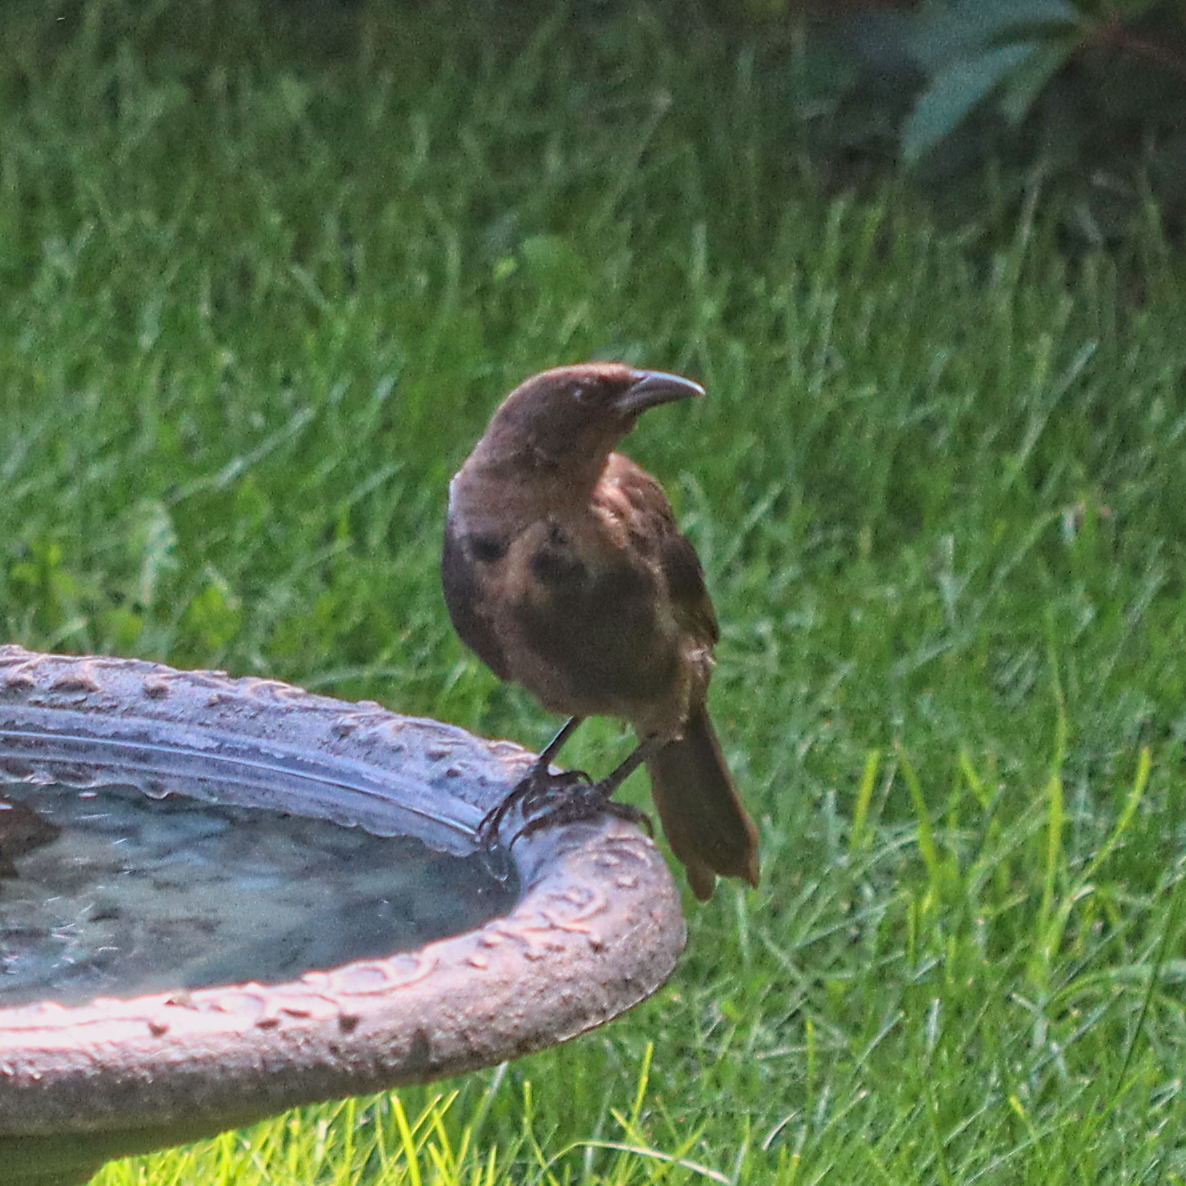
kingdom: Animalia
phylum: Chordata
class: Aves
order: Passeriformes
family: Icteridae
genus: Quiscalus
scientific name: Quiscalus quiscula
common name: Common grackle
